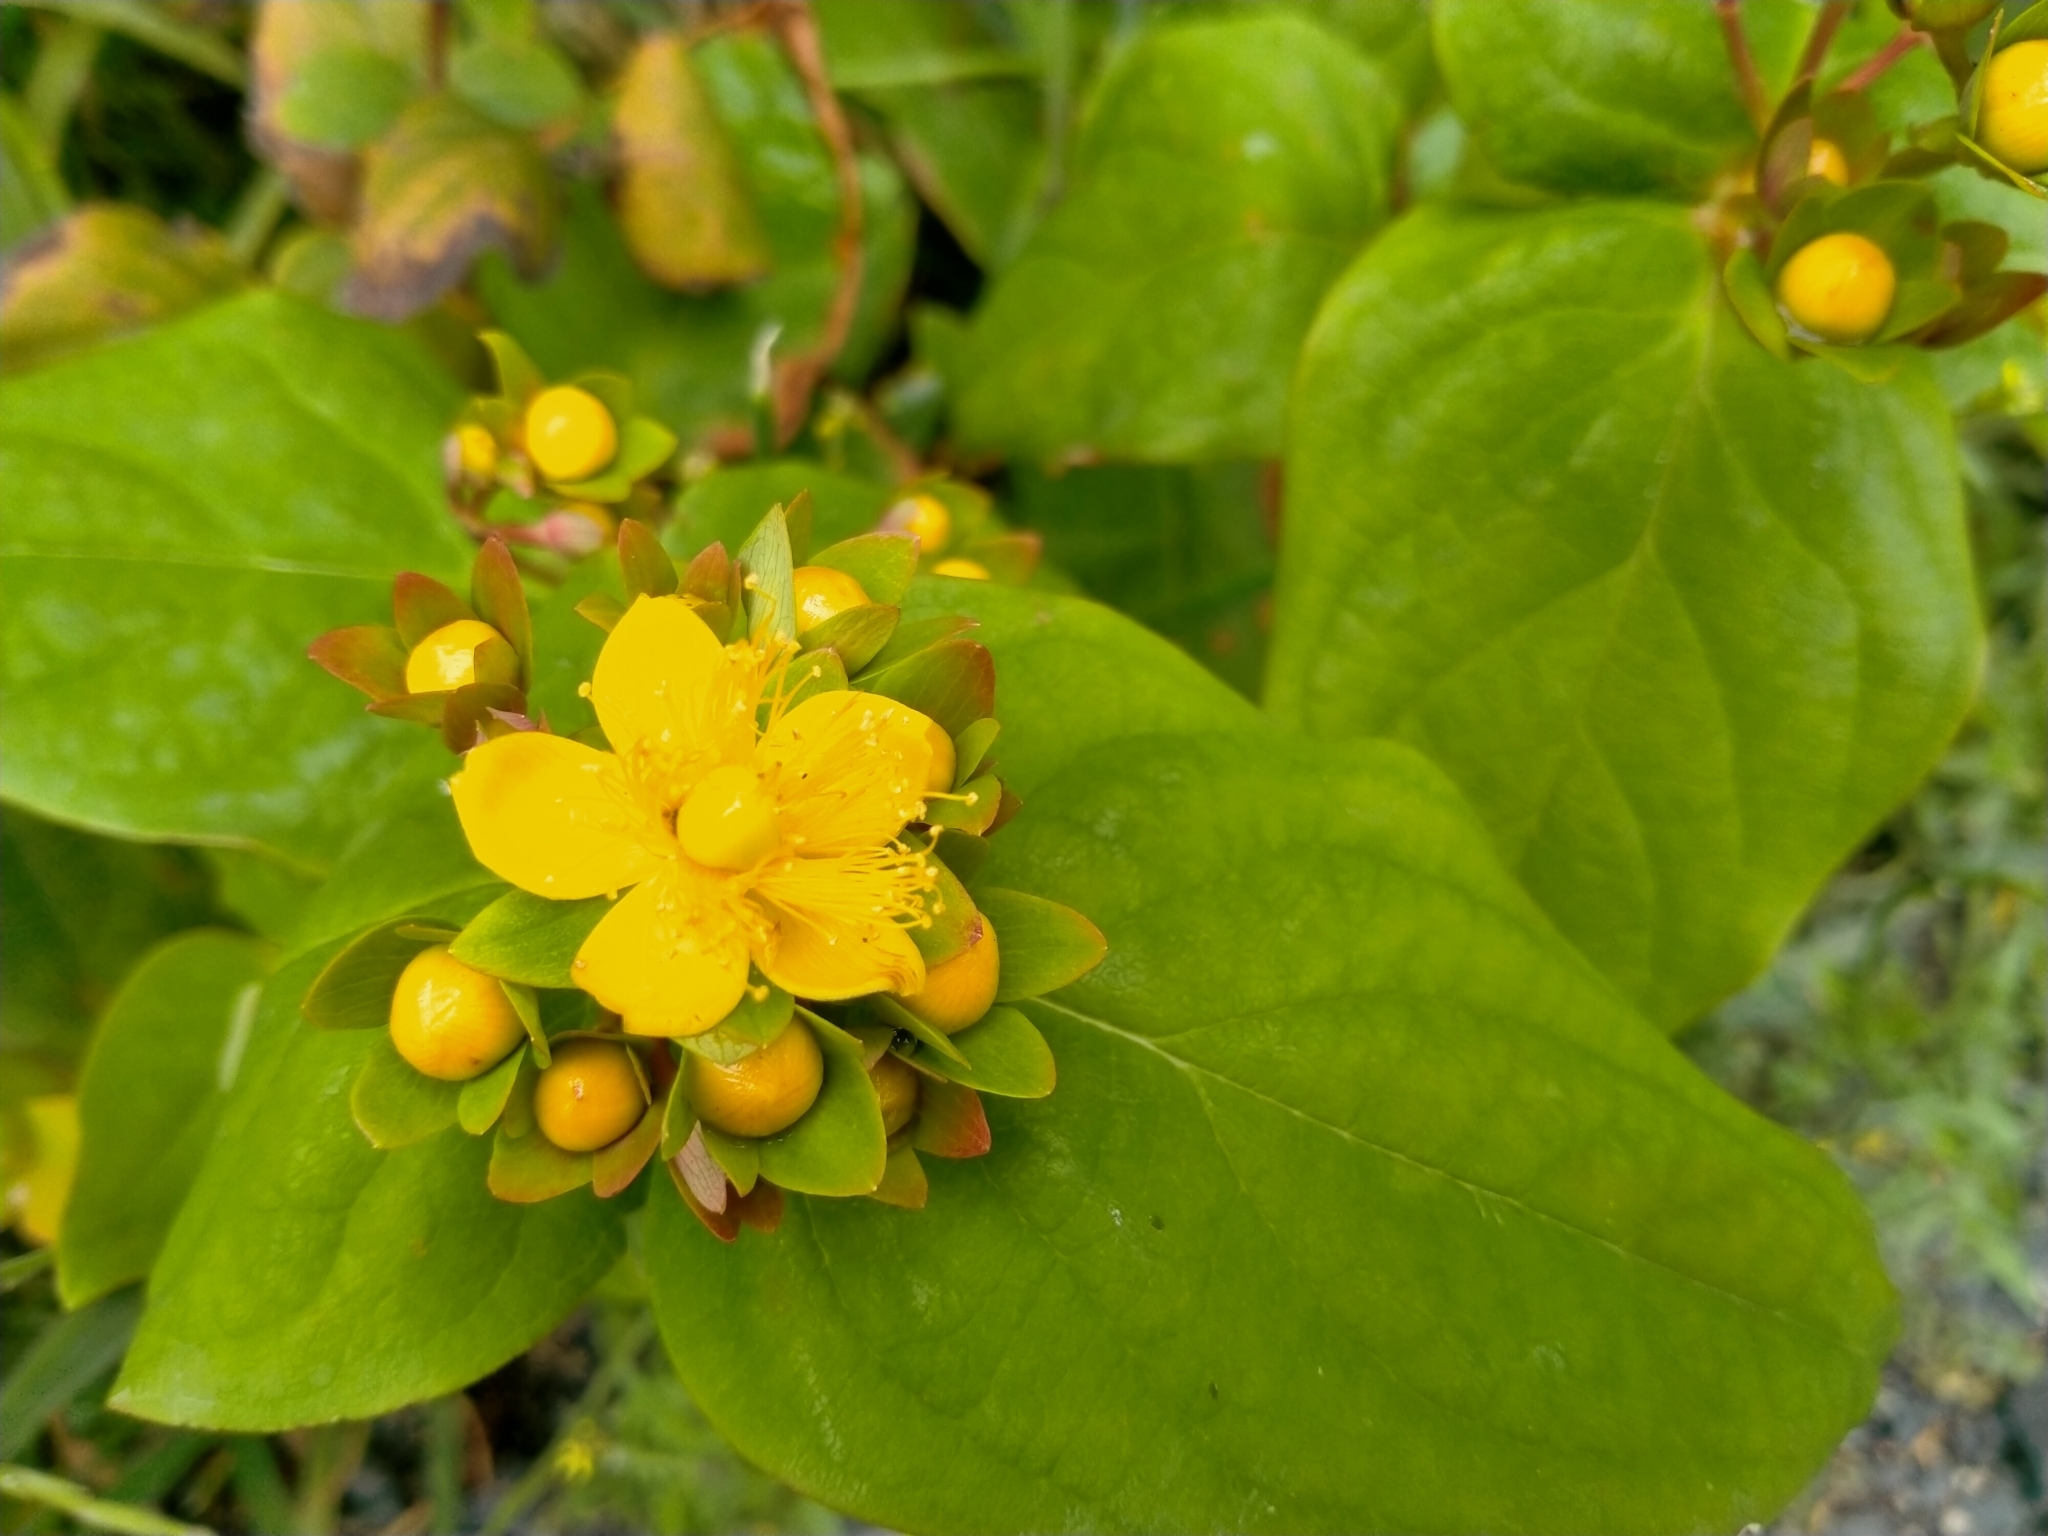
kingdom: Plantae
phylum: Tracheophyta
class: Magnoliopsida
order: Malpighiales
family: Hypericaceae
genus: Hypericum
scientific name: Hypericum androsaemum
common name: Sweet-amber
